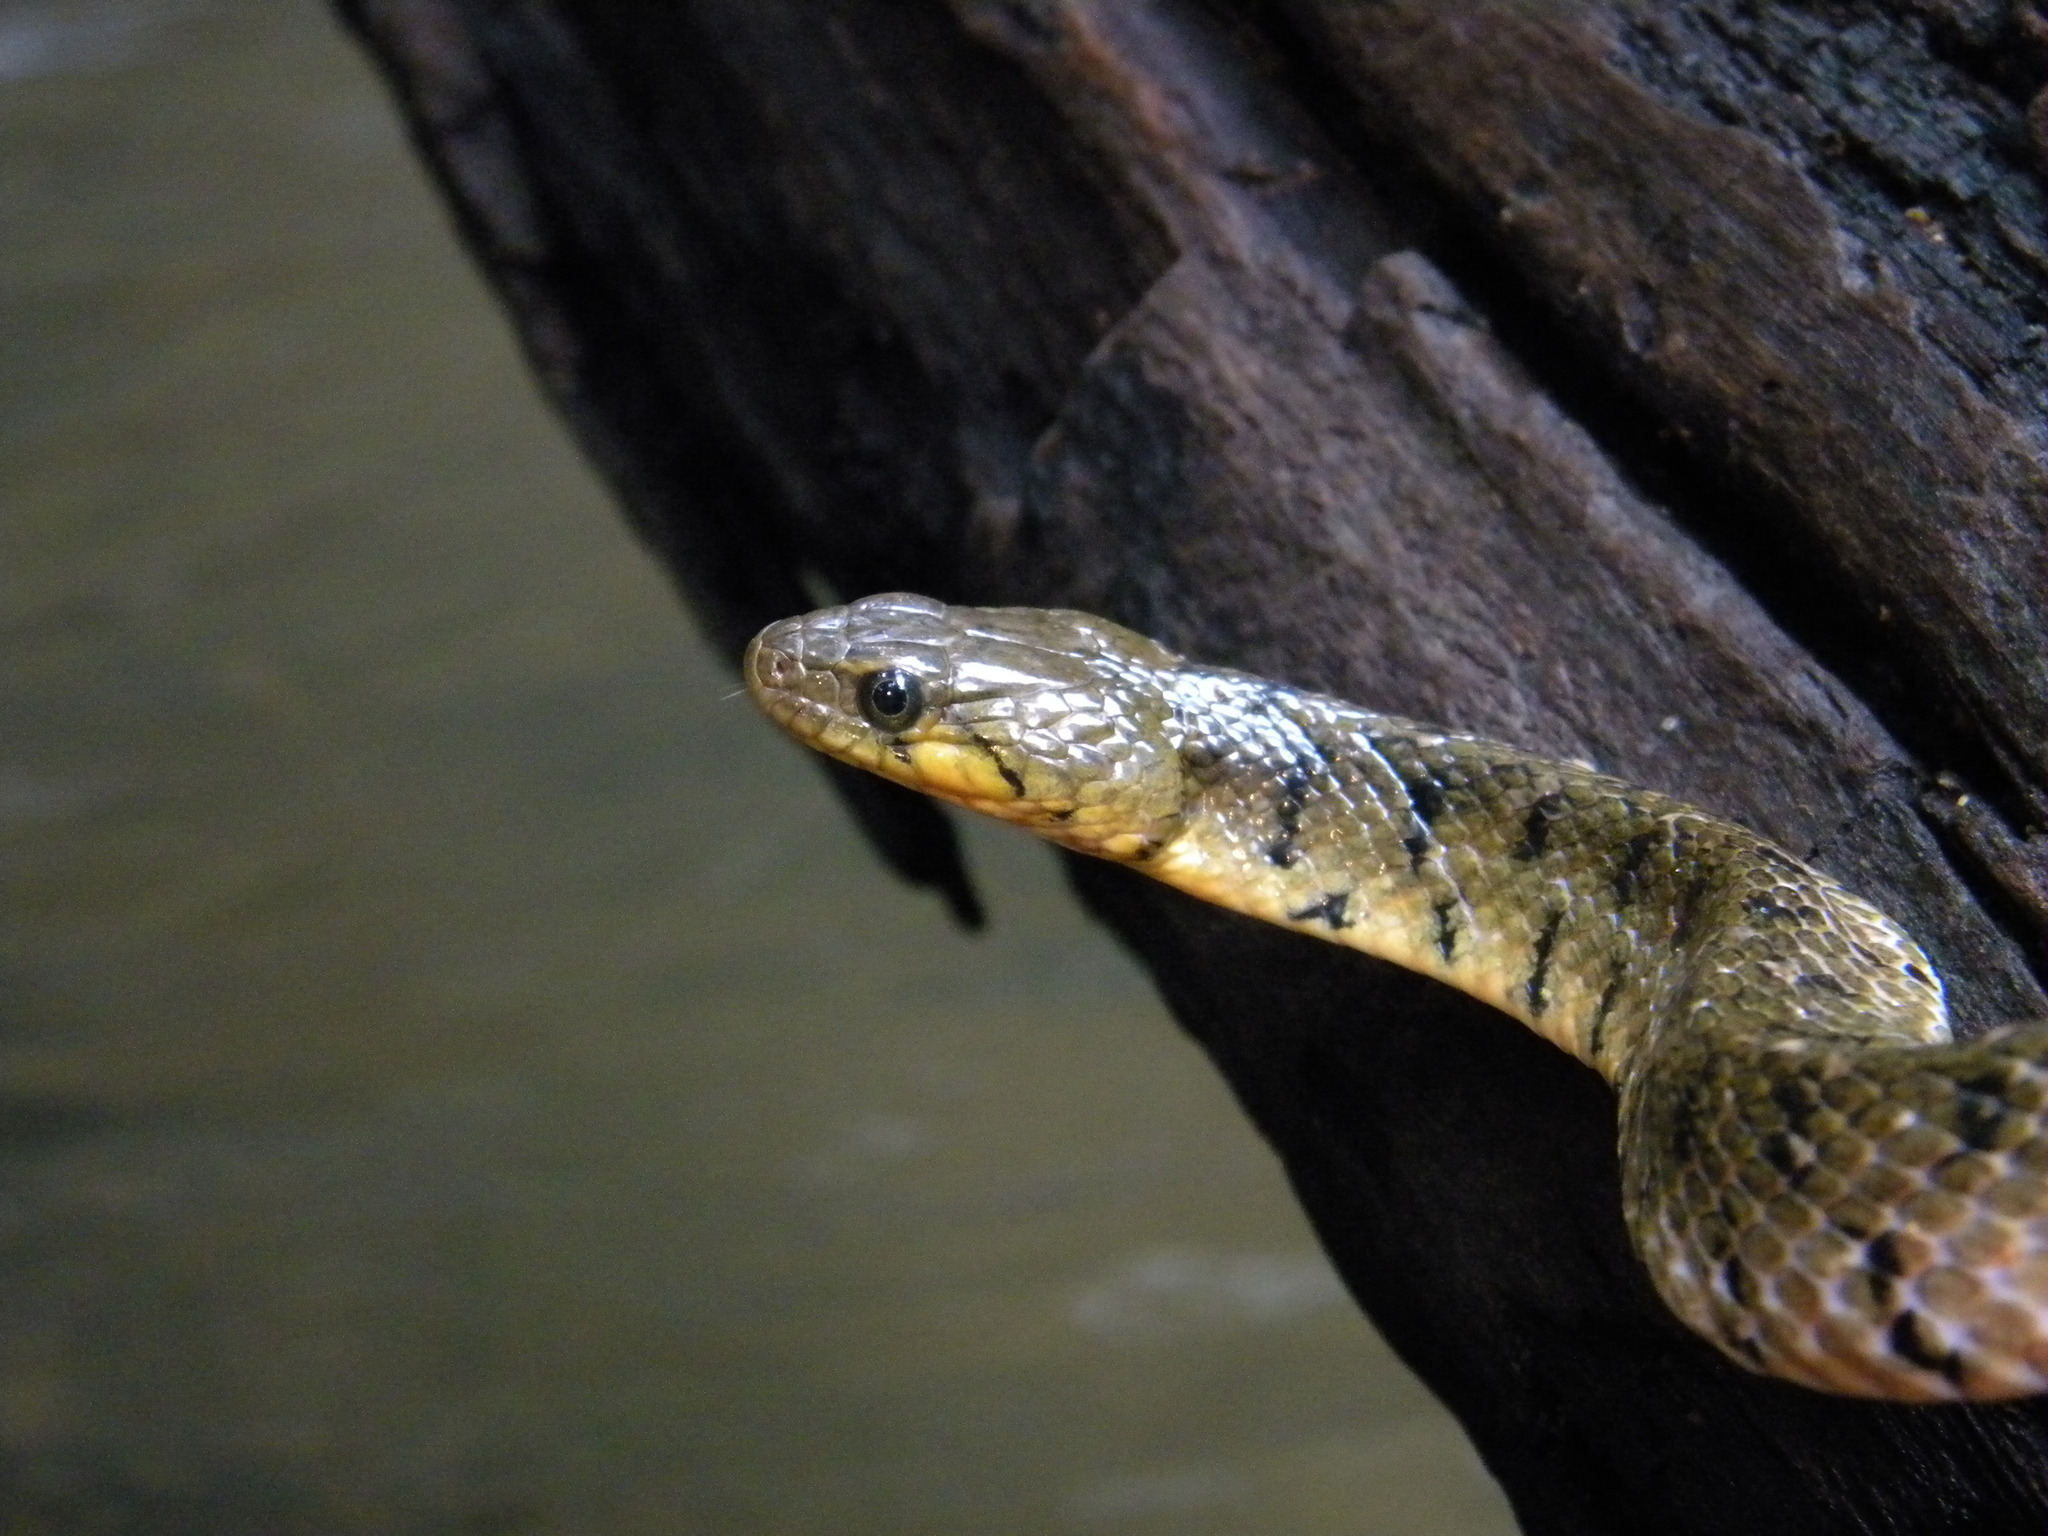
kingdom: Animalia
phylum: Chordata
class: Squamata
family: Colubridae
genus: Fowlea
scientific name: Fowlea piscator
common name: Asiatic water snake
